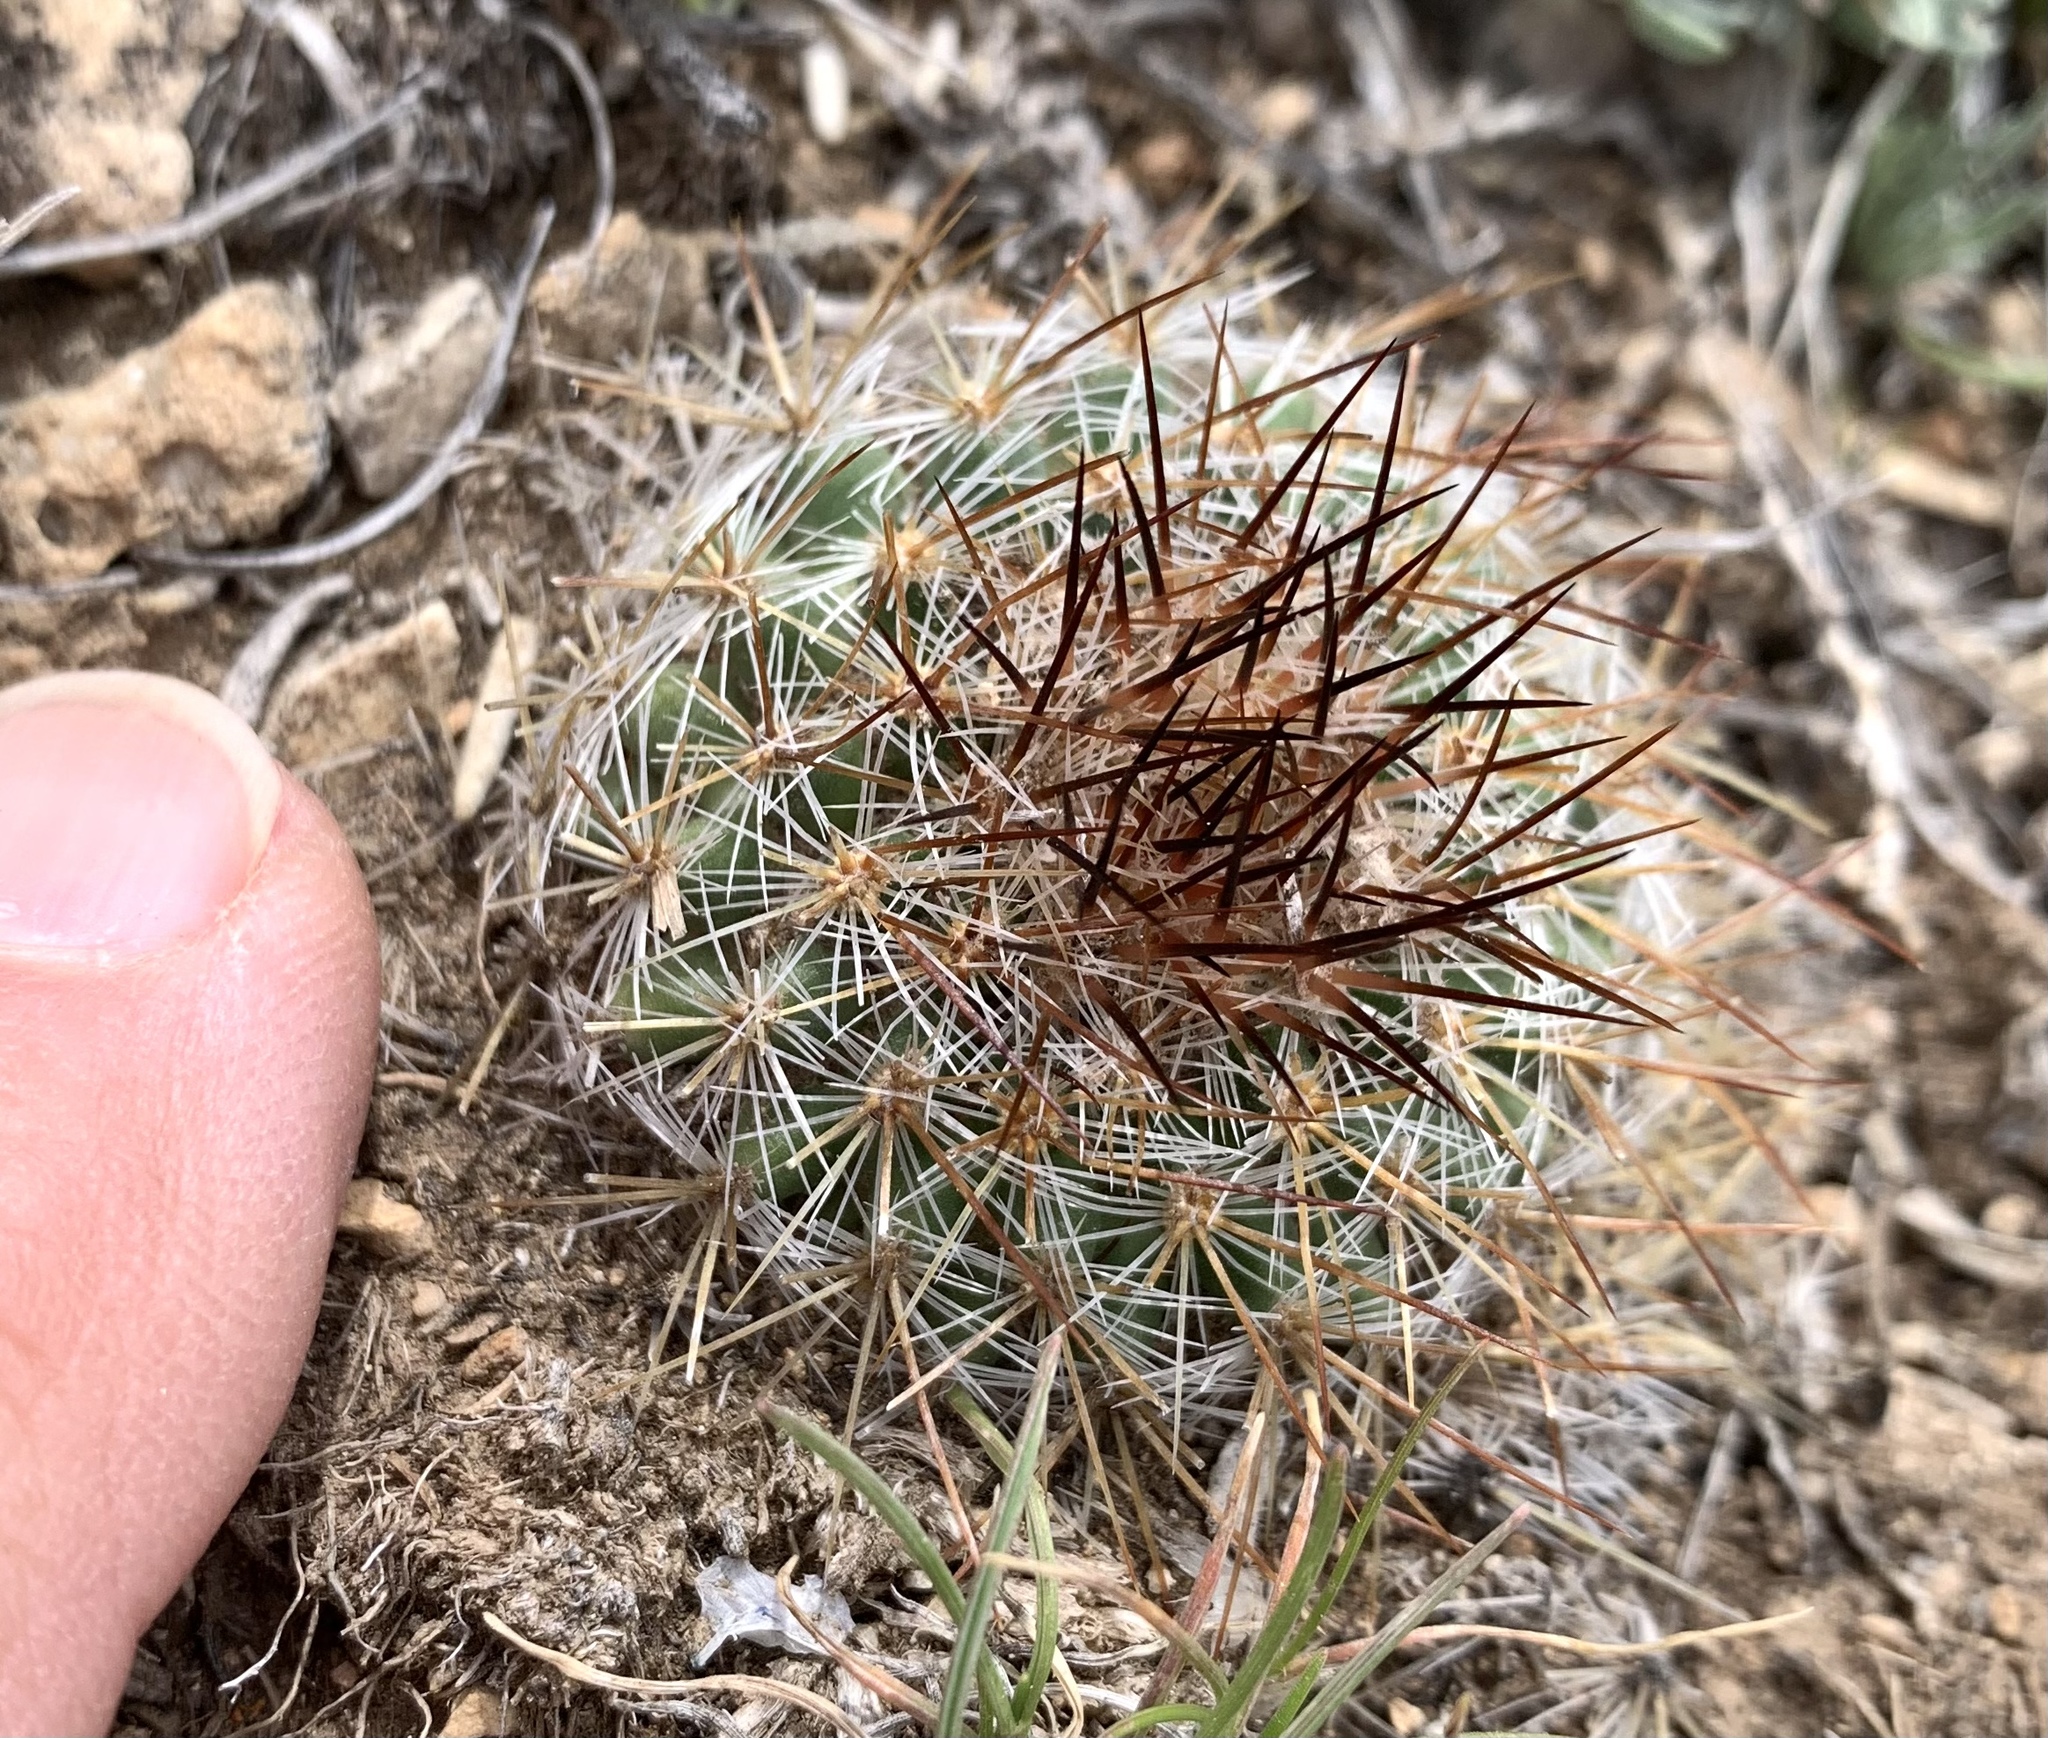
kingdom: Plantae
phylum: Tracheophyta
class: Magnoliopsida
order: Caryophyllales
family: Cactaceae
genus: Pediocactus
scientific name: Pediocactus simpsonii
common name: Simpson's hedgehog cactus
